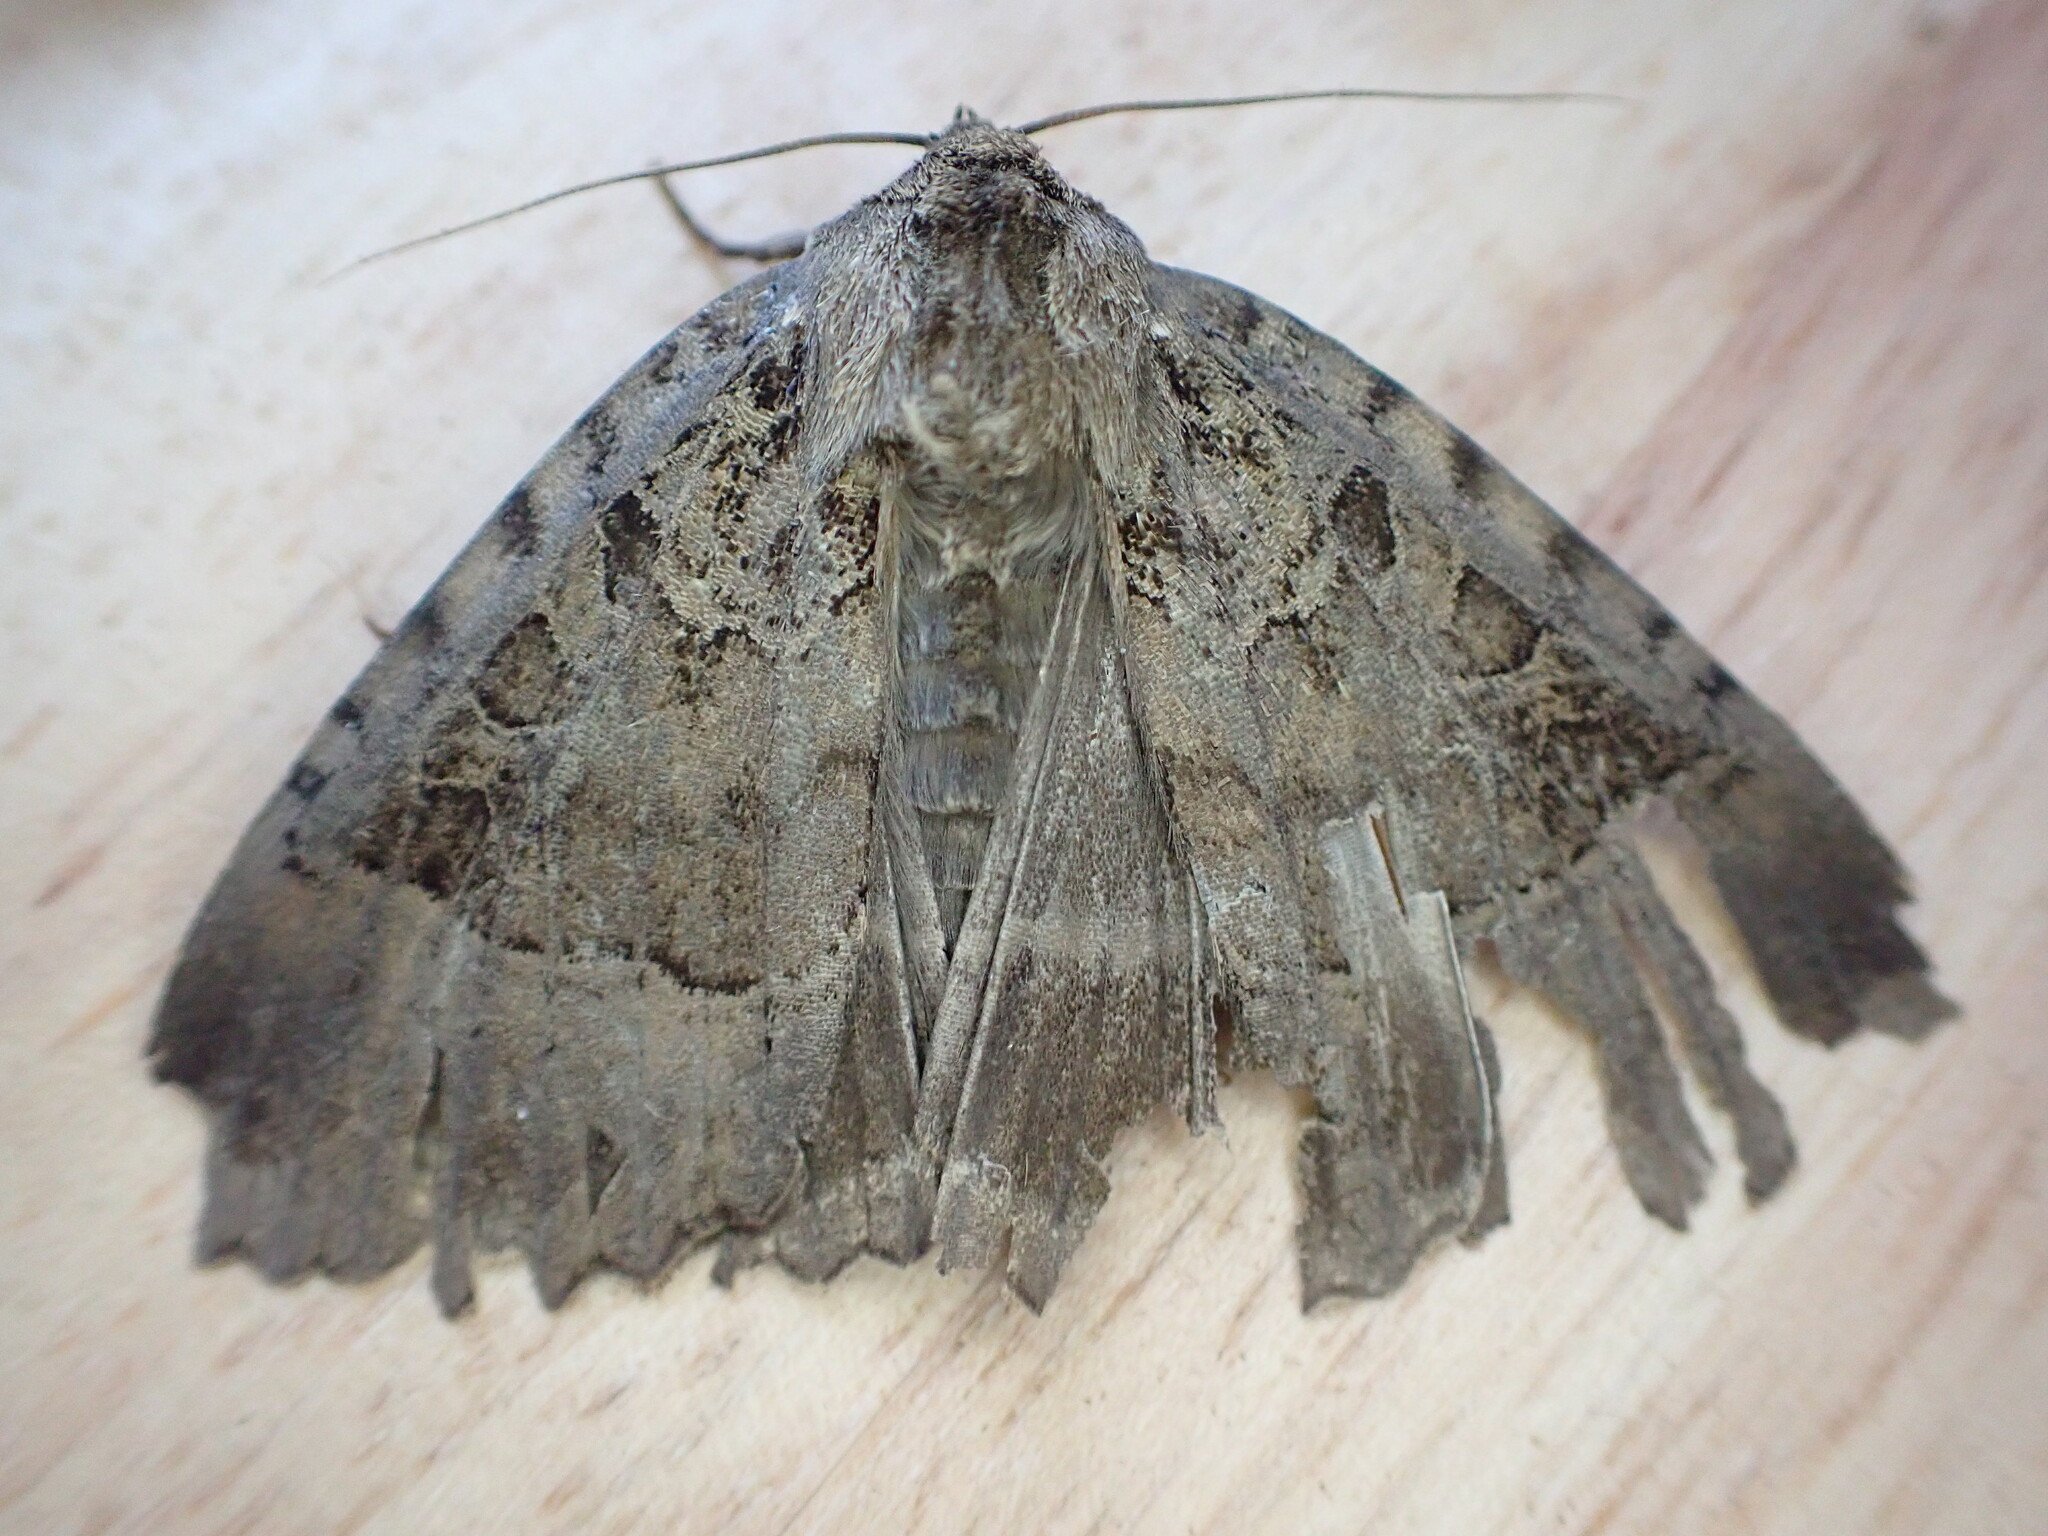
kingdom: Animalia
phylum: Arthropoda
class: Insecta
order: Lepidoptera
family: Noctuidae
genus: Mormo
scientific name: Mormo maura
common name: Old lady
